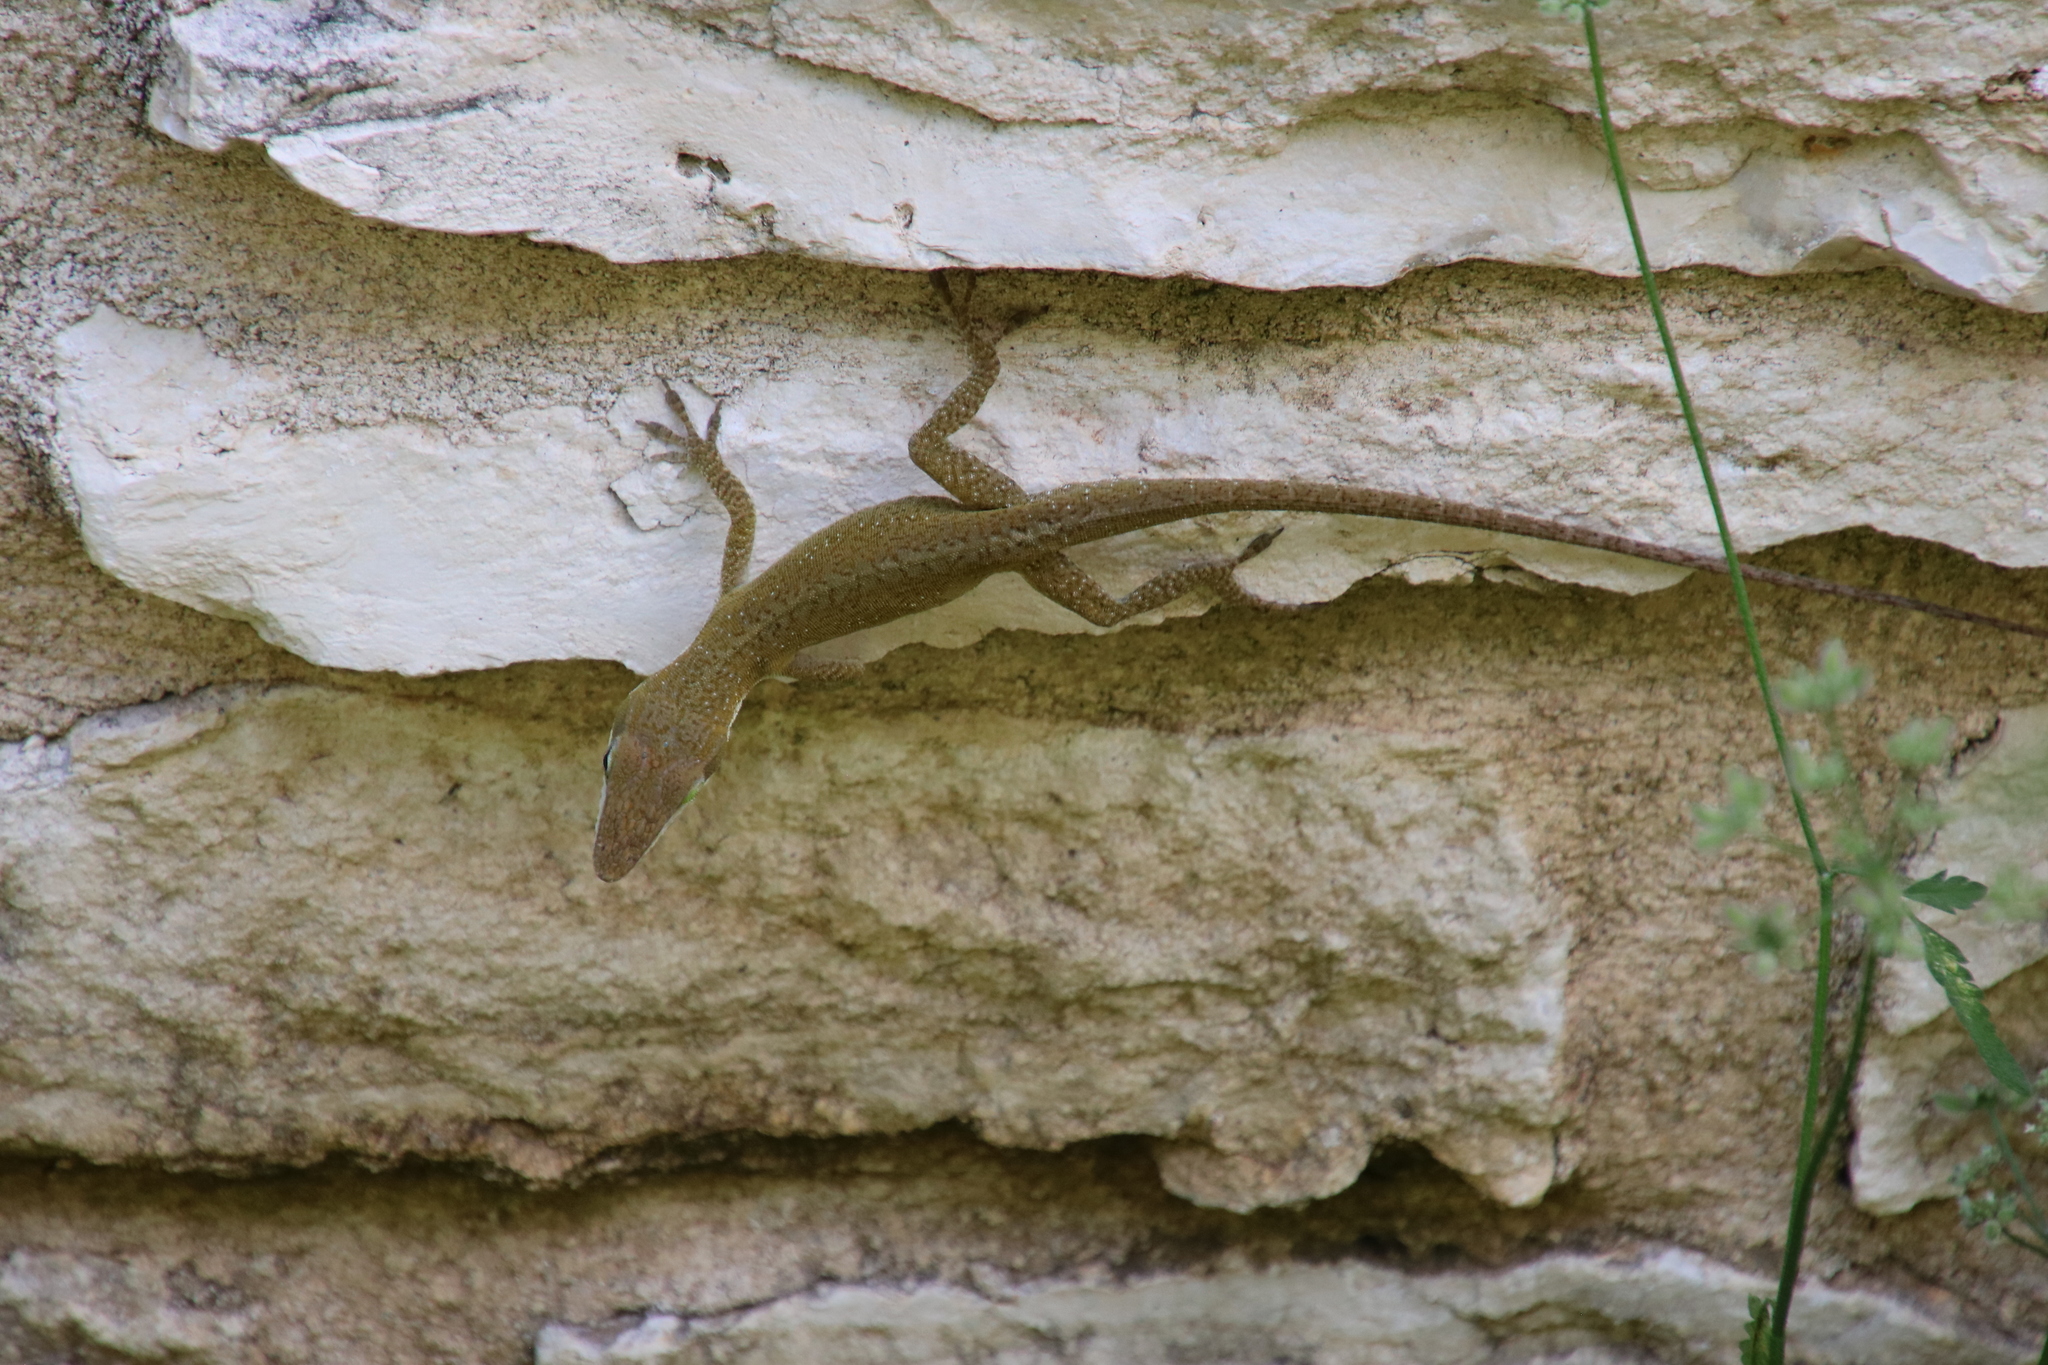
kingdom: Animalia
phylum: Chordata
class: Squamata
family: Dactyloidae
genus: Anolis
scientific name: Anolis carolinensis
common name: Green anole
